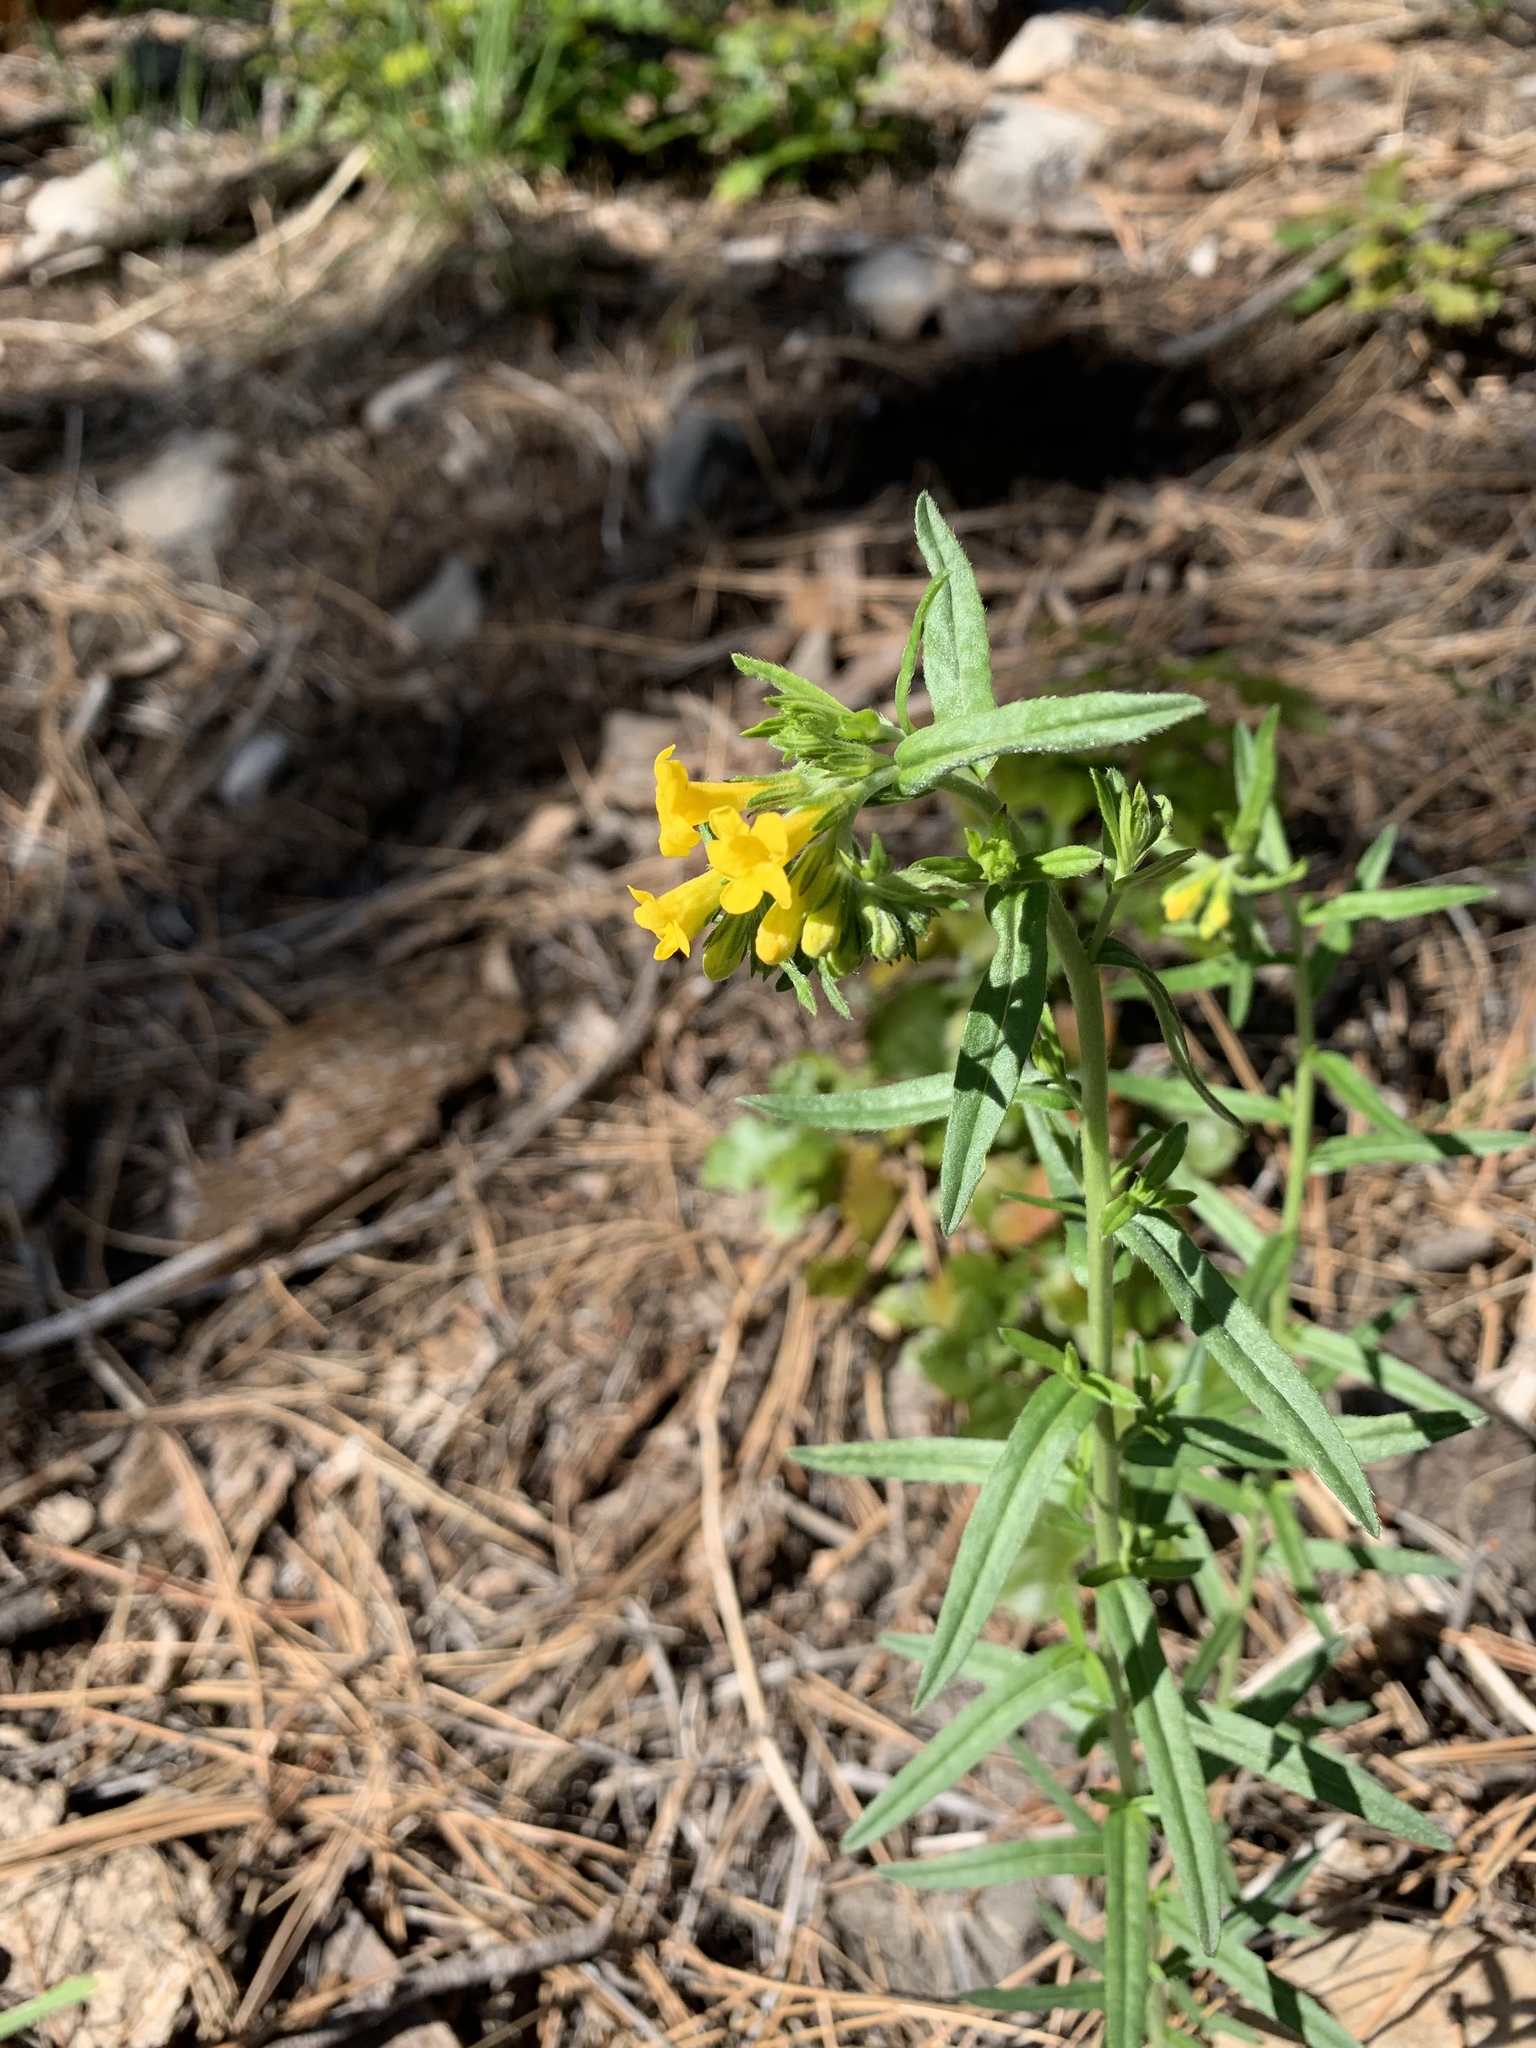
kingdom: Plantae
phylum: Tracheophyta
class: Magnoliopsida
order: Boraginales
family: Boraginaceae
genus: Lithospermum
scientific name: Lithospermum multiflorum
